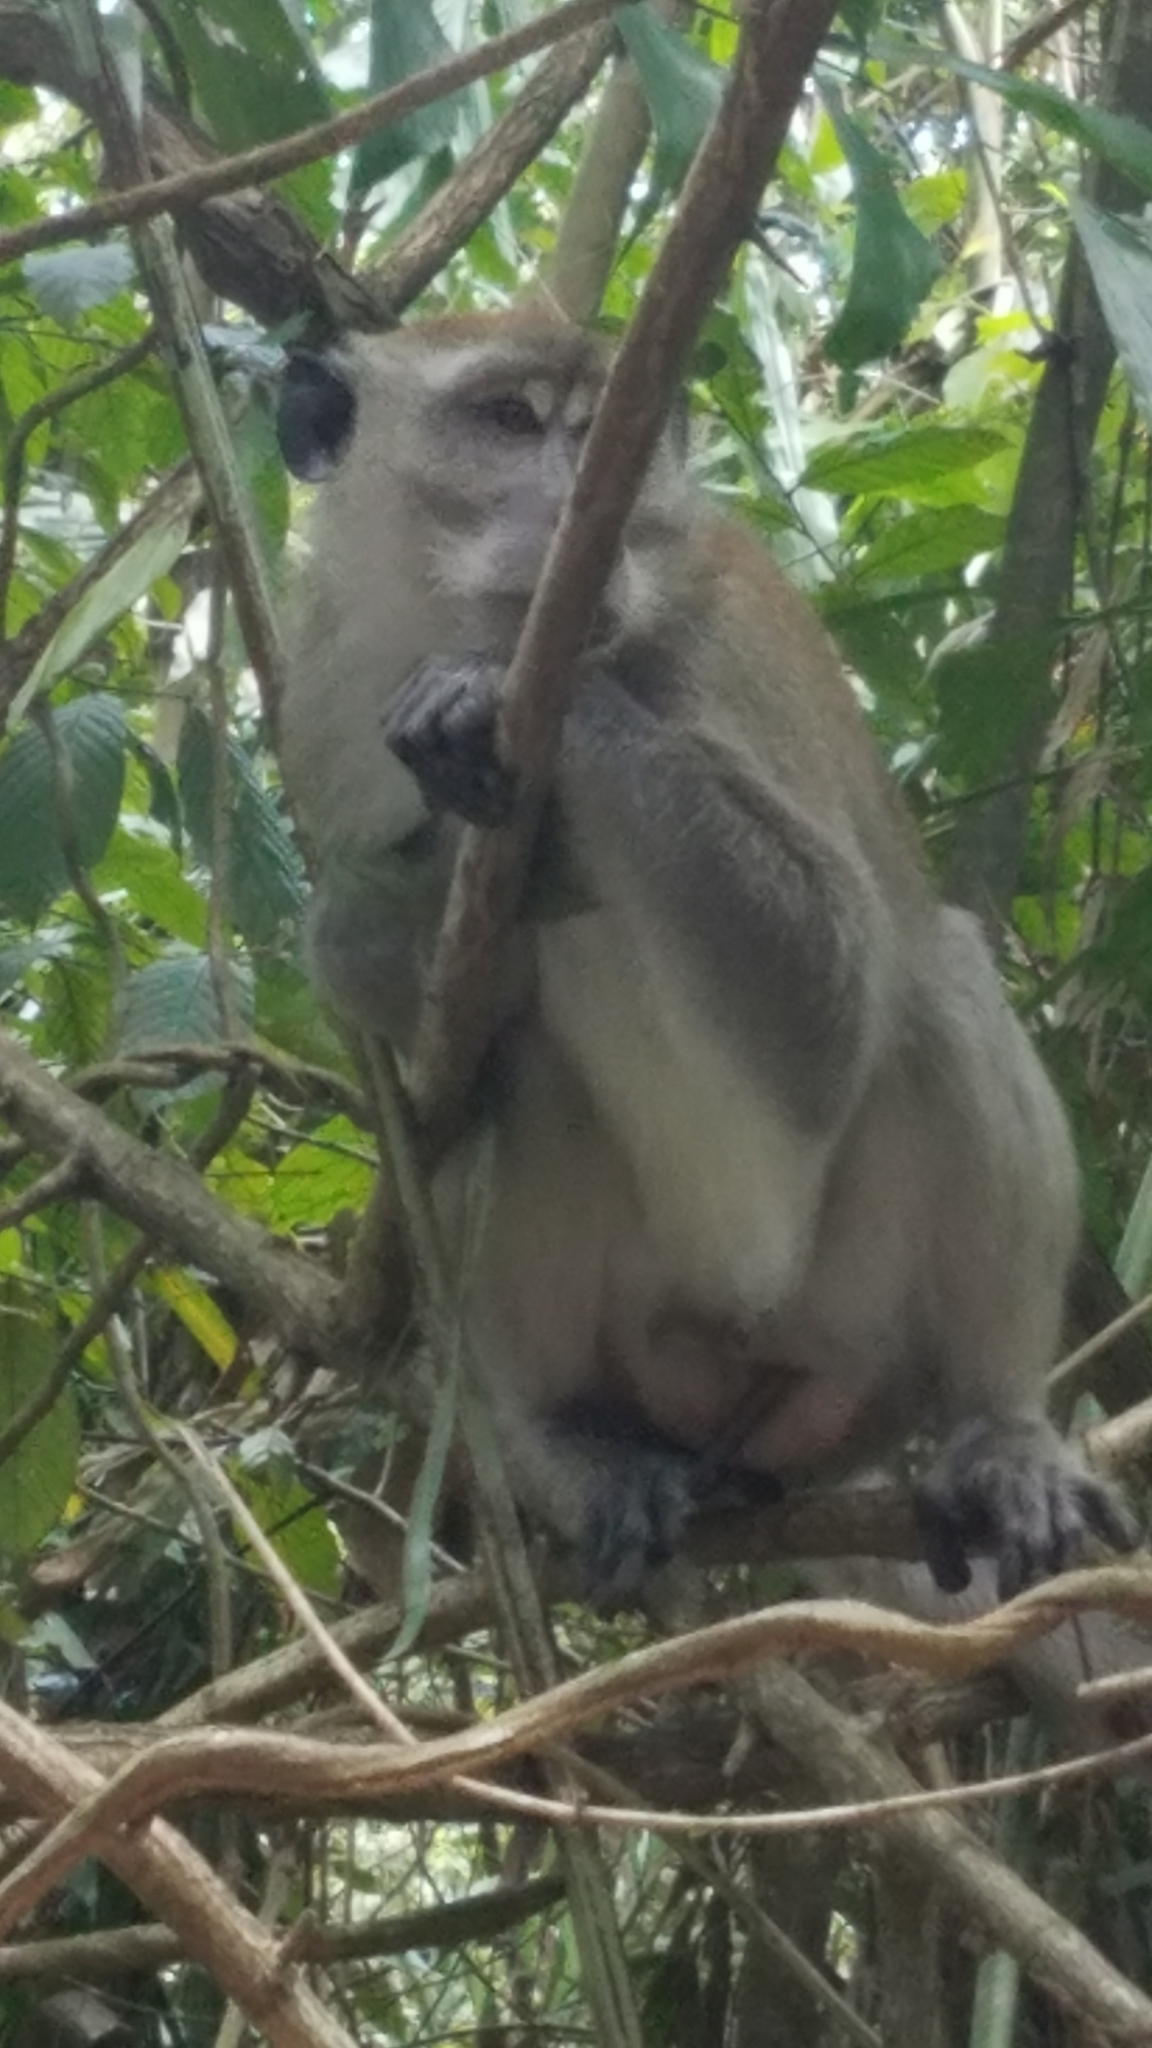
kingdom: Animalia
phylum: Chordata
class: Mammalia
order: Primates
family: Cercopithecidae
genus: Macaca
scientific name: Macaca fascicularis
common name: Crab-eating macaque
